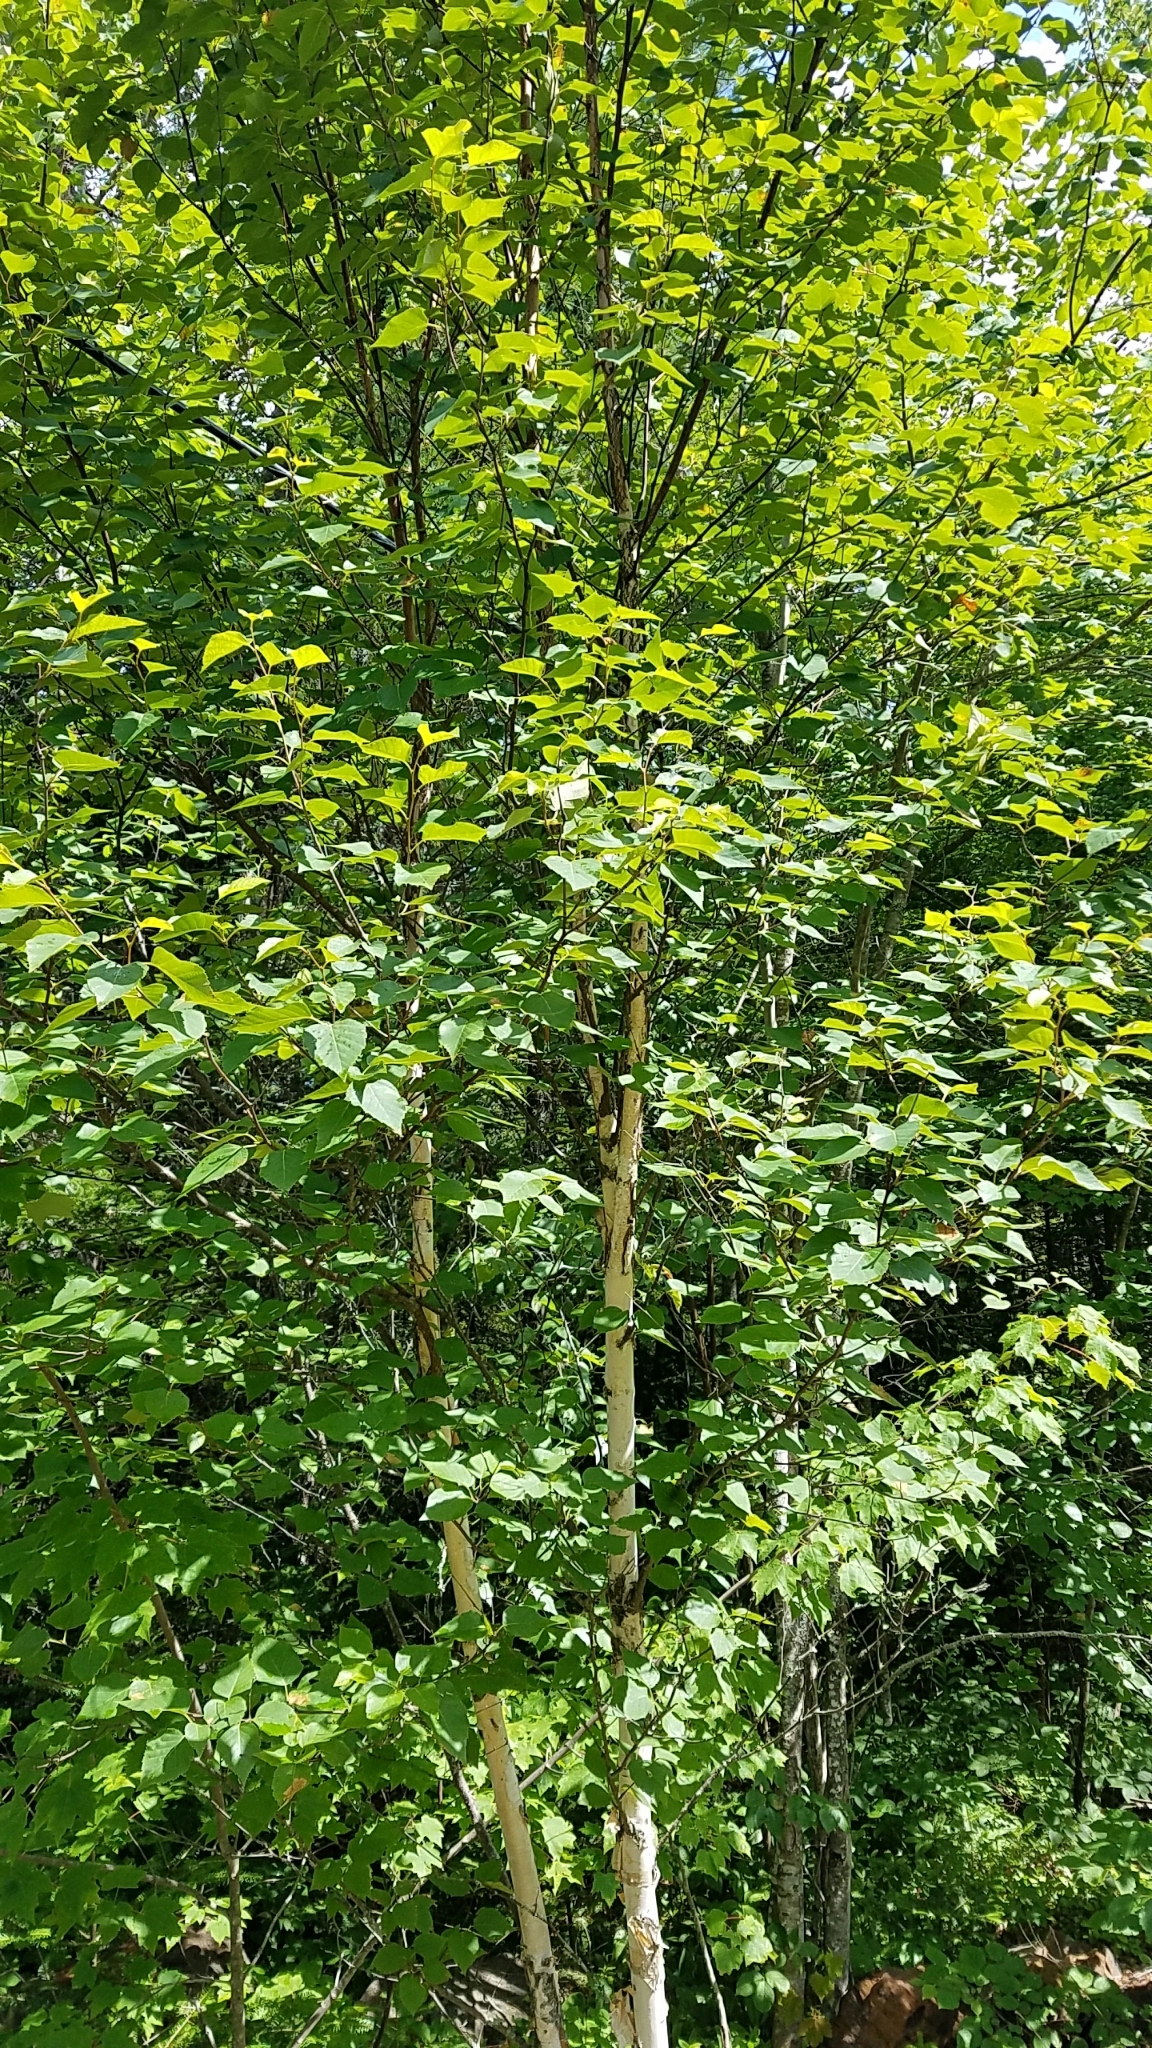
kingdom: Plantae
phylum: Tracheophyta
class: Magnoliopsida
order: Fagales
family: Betulaceae
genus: Betula
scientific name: Betula papyrifera
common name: Paper birch
